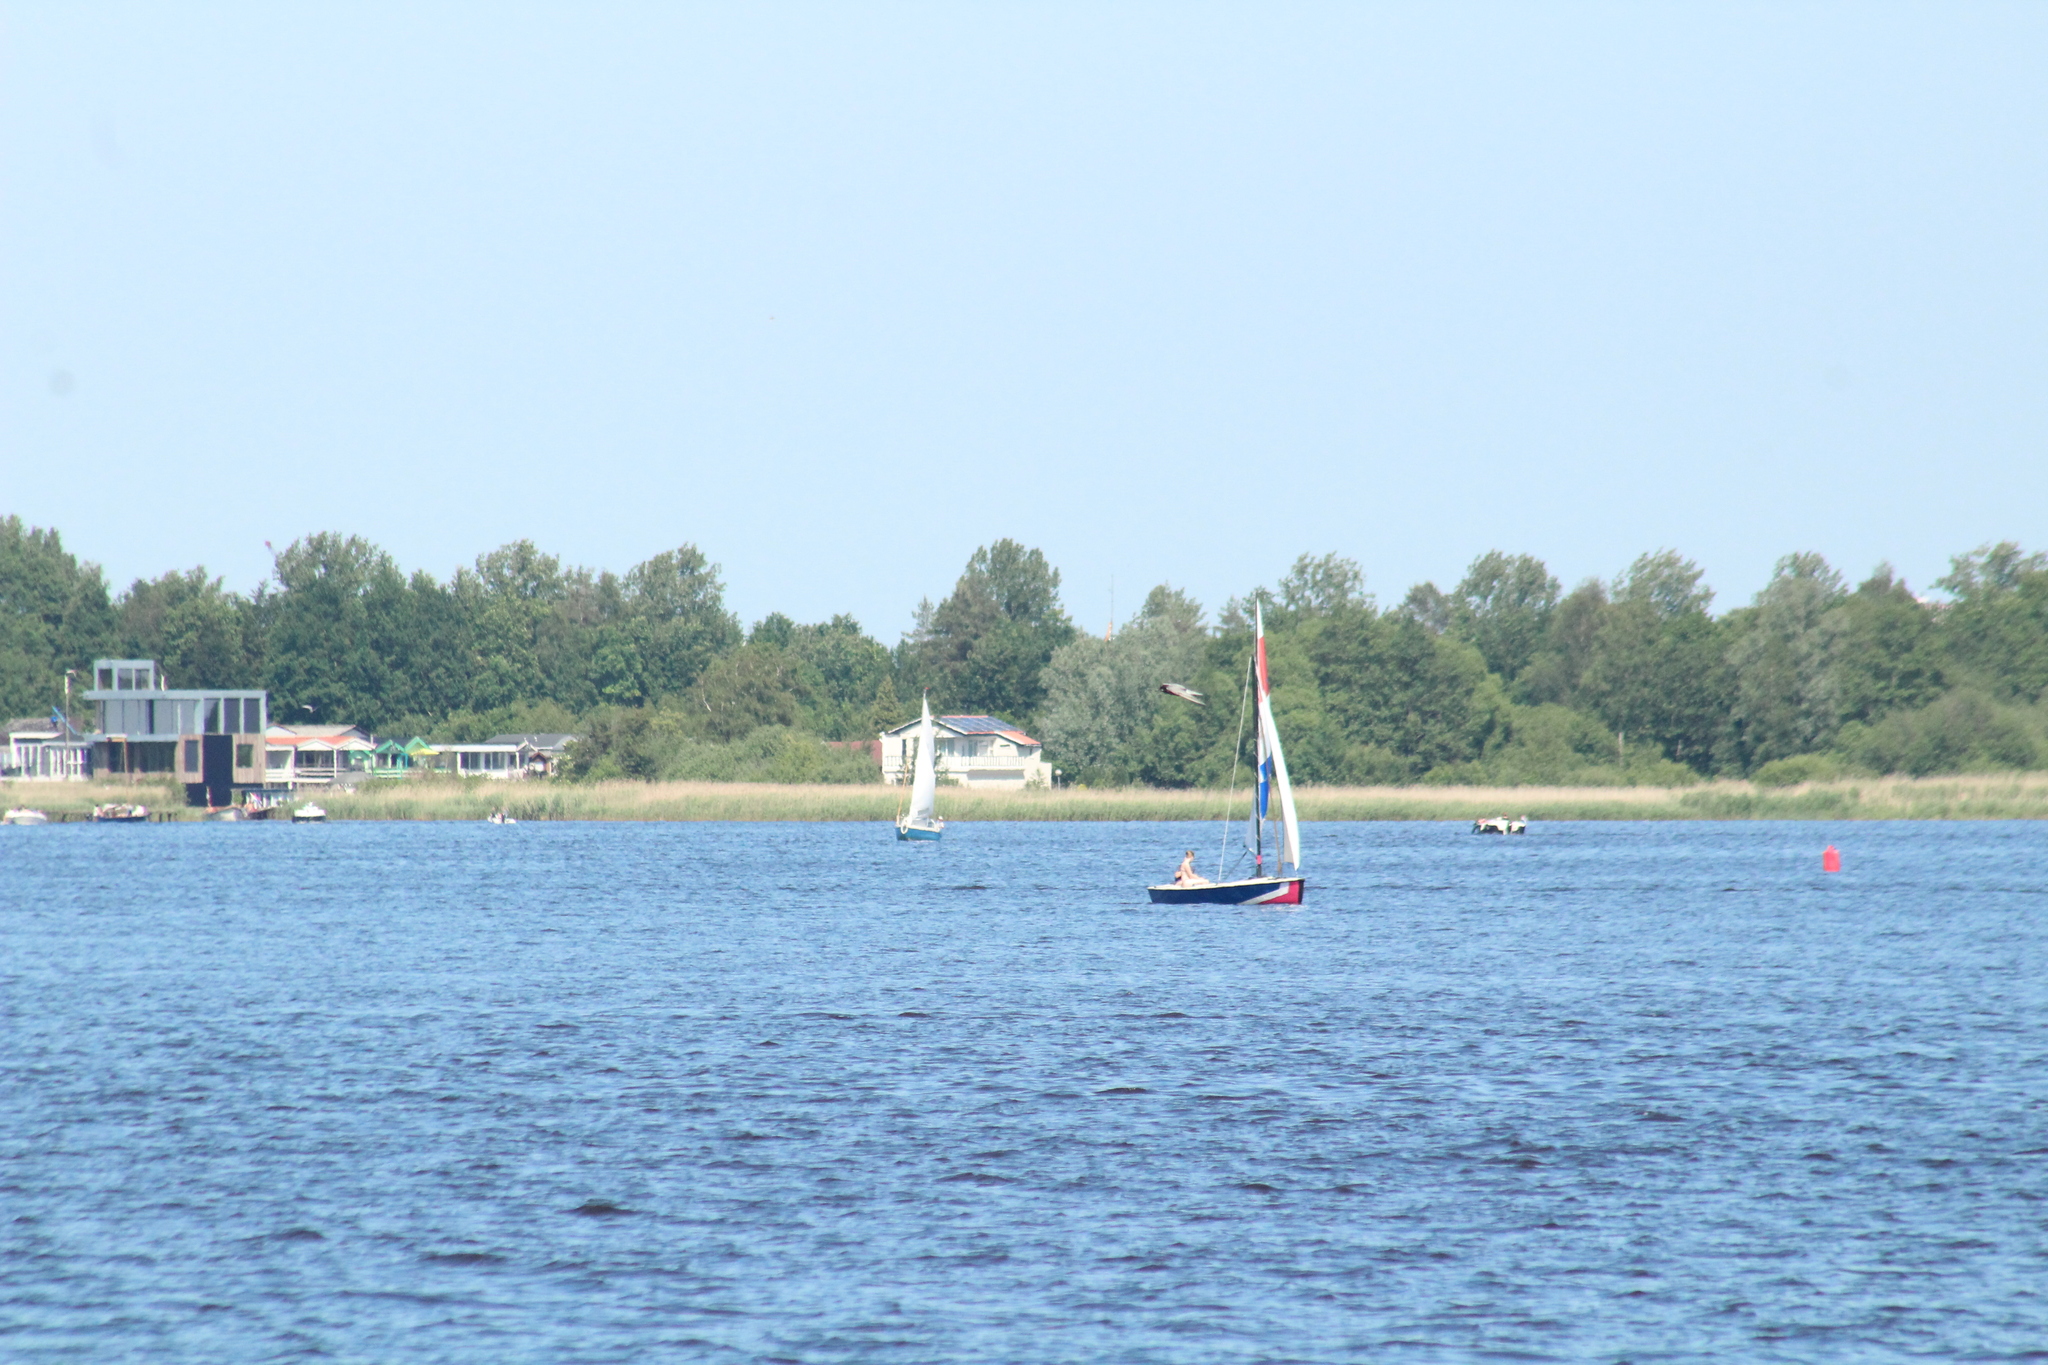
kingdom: Animalia
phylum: Chordata
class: Aves
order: Charadriiformes
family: Laridae
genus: Chlidonias
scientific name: Chlidonias niger
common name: Black tern
